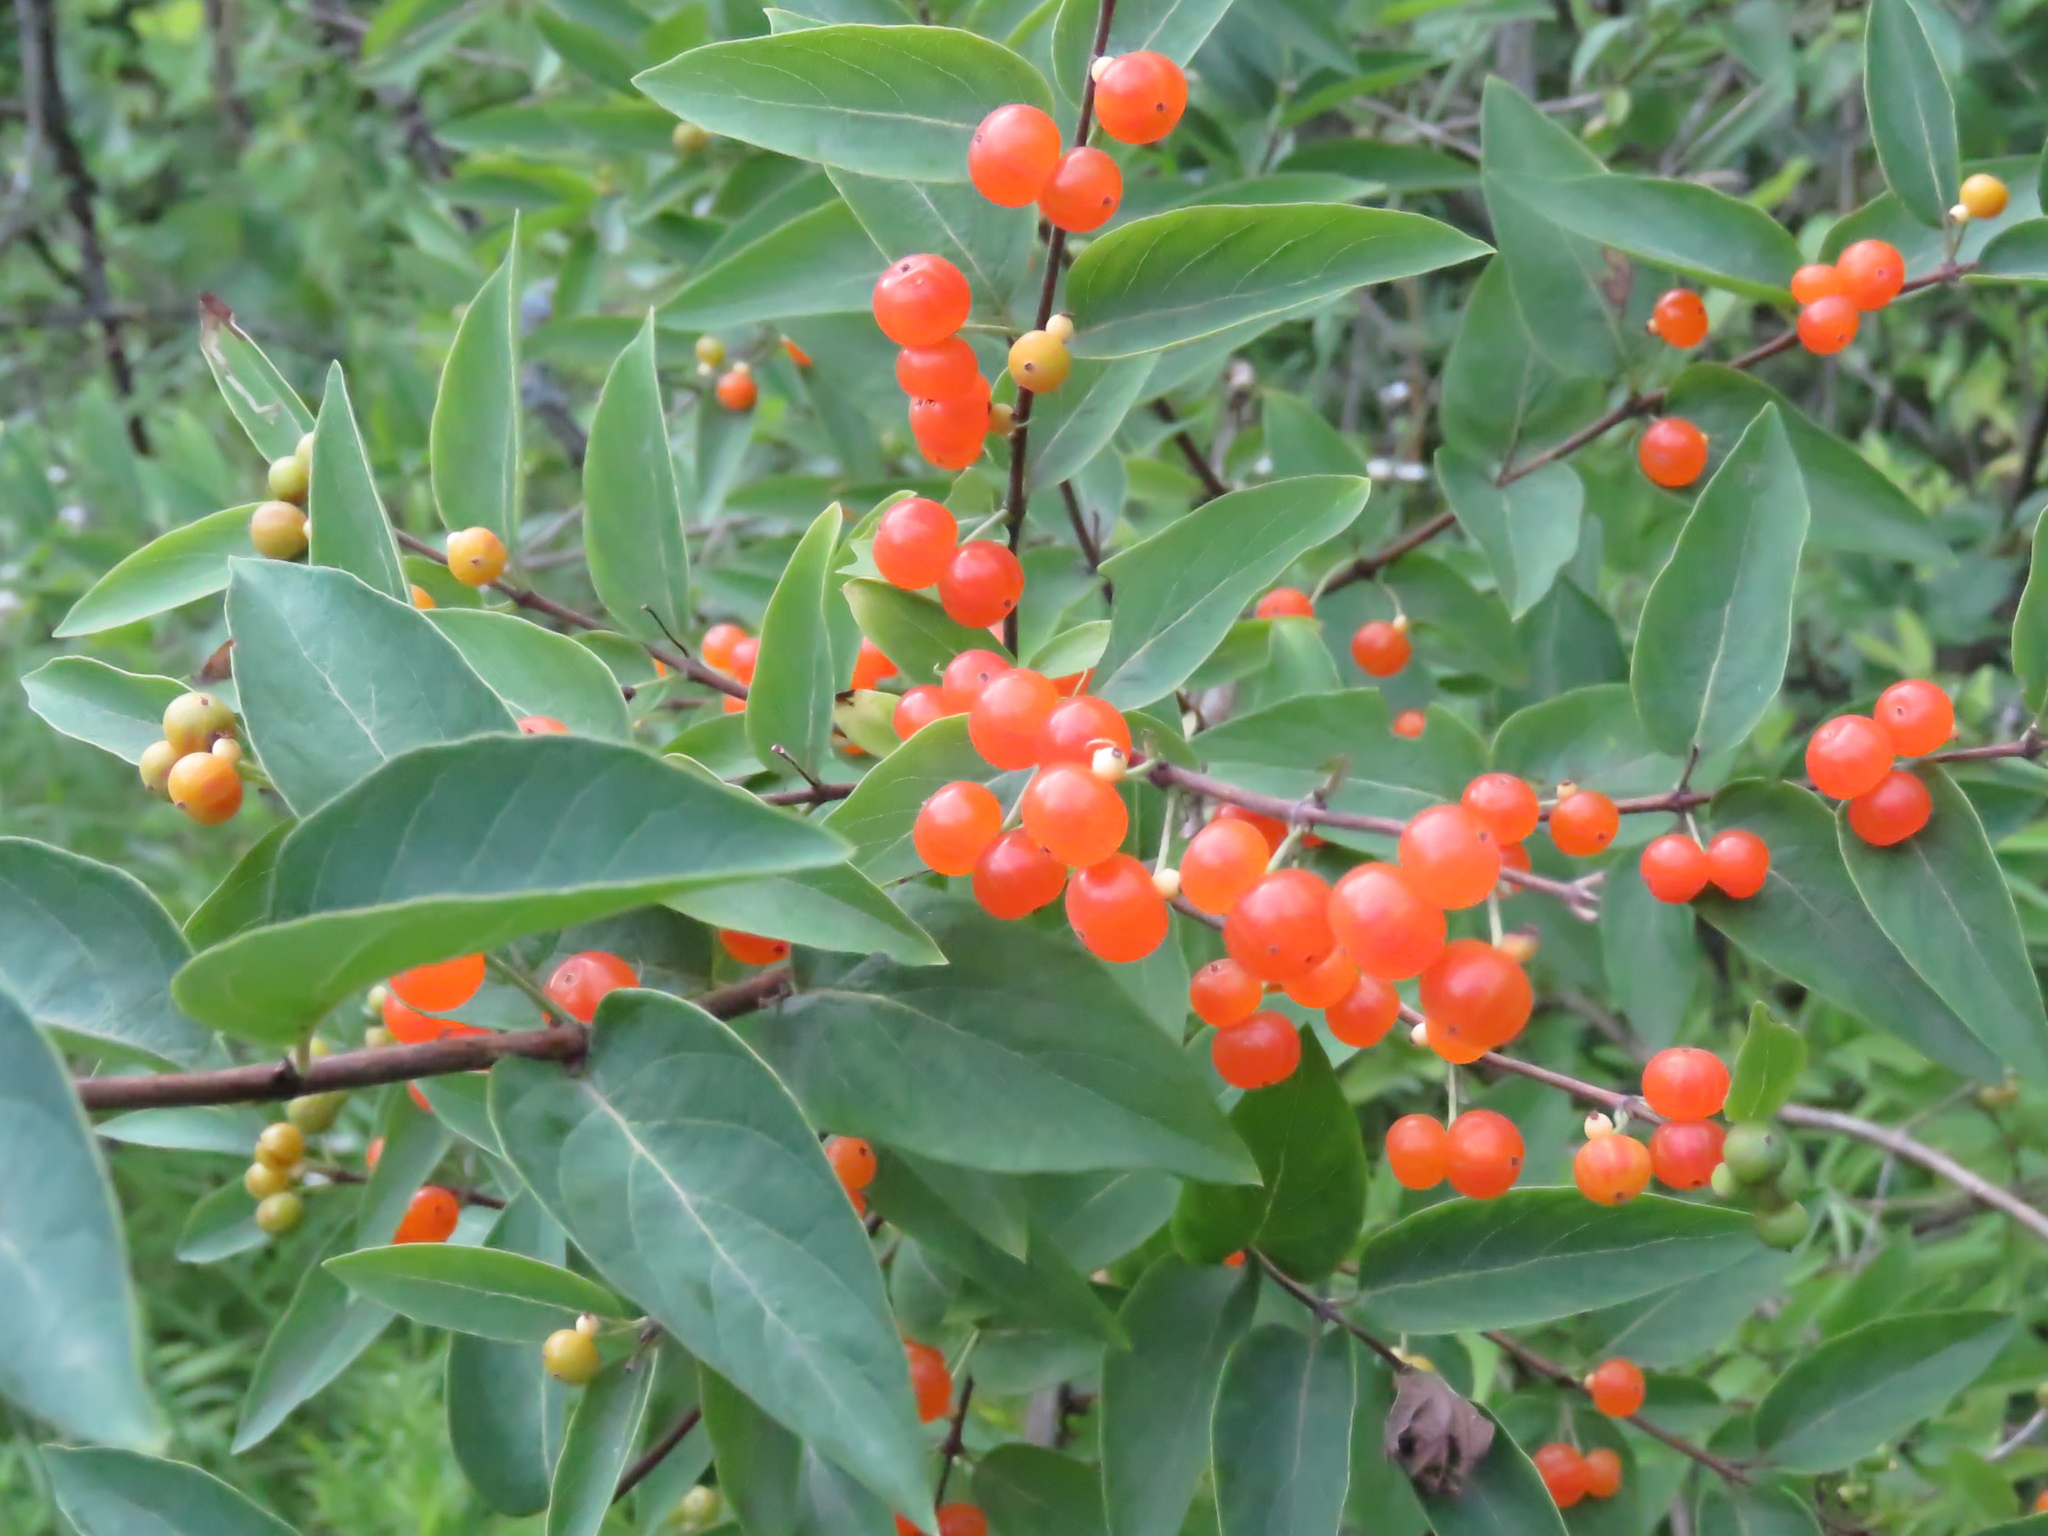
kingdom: Plantae
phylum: Tracheophyta
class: Magnoliopsida
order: Dipsacales
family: Caprifoliaceae
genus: Lonicera
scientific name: Lonicera tatarica
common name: Tatarian honeysuckle
